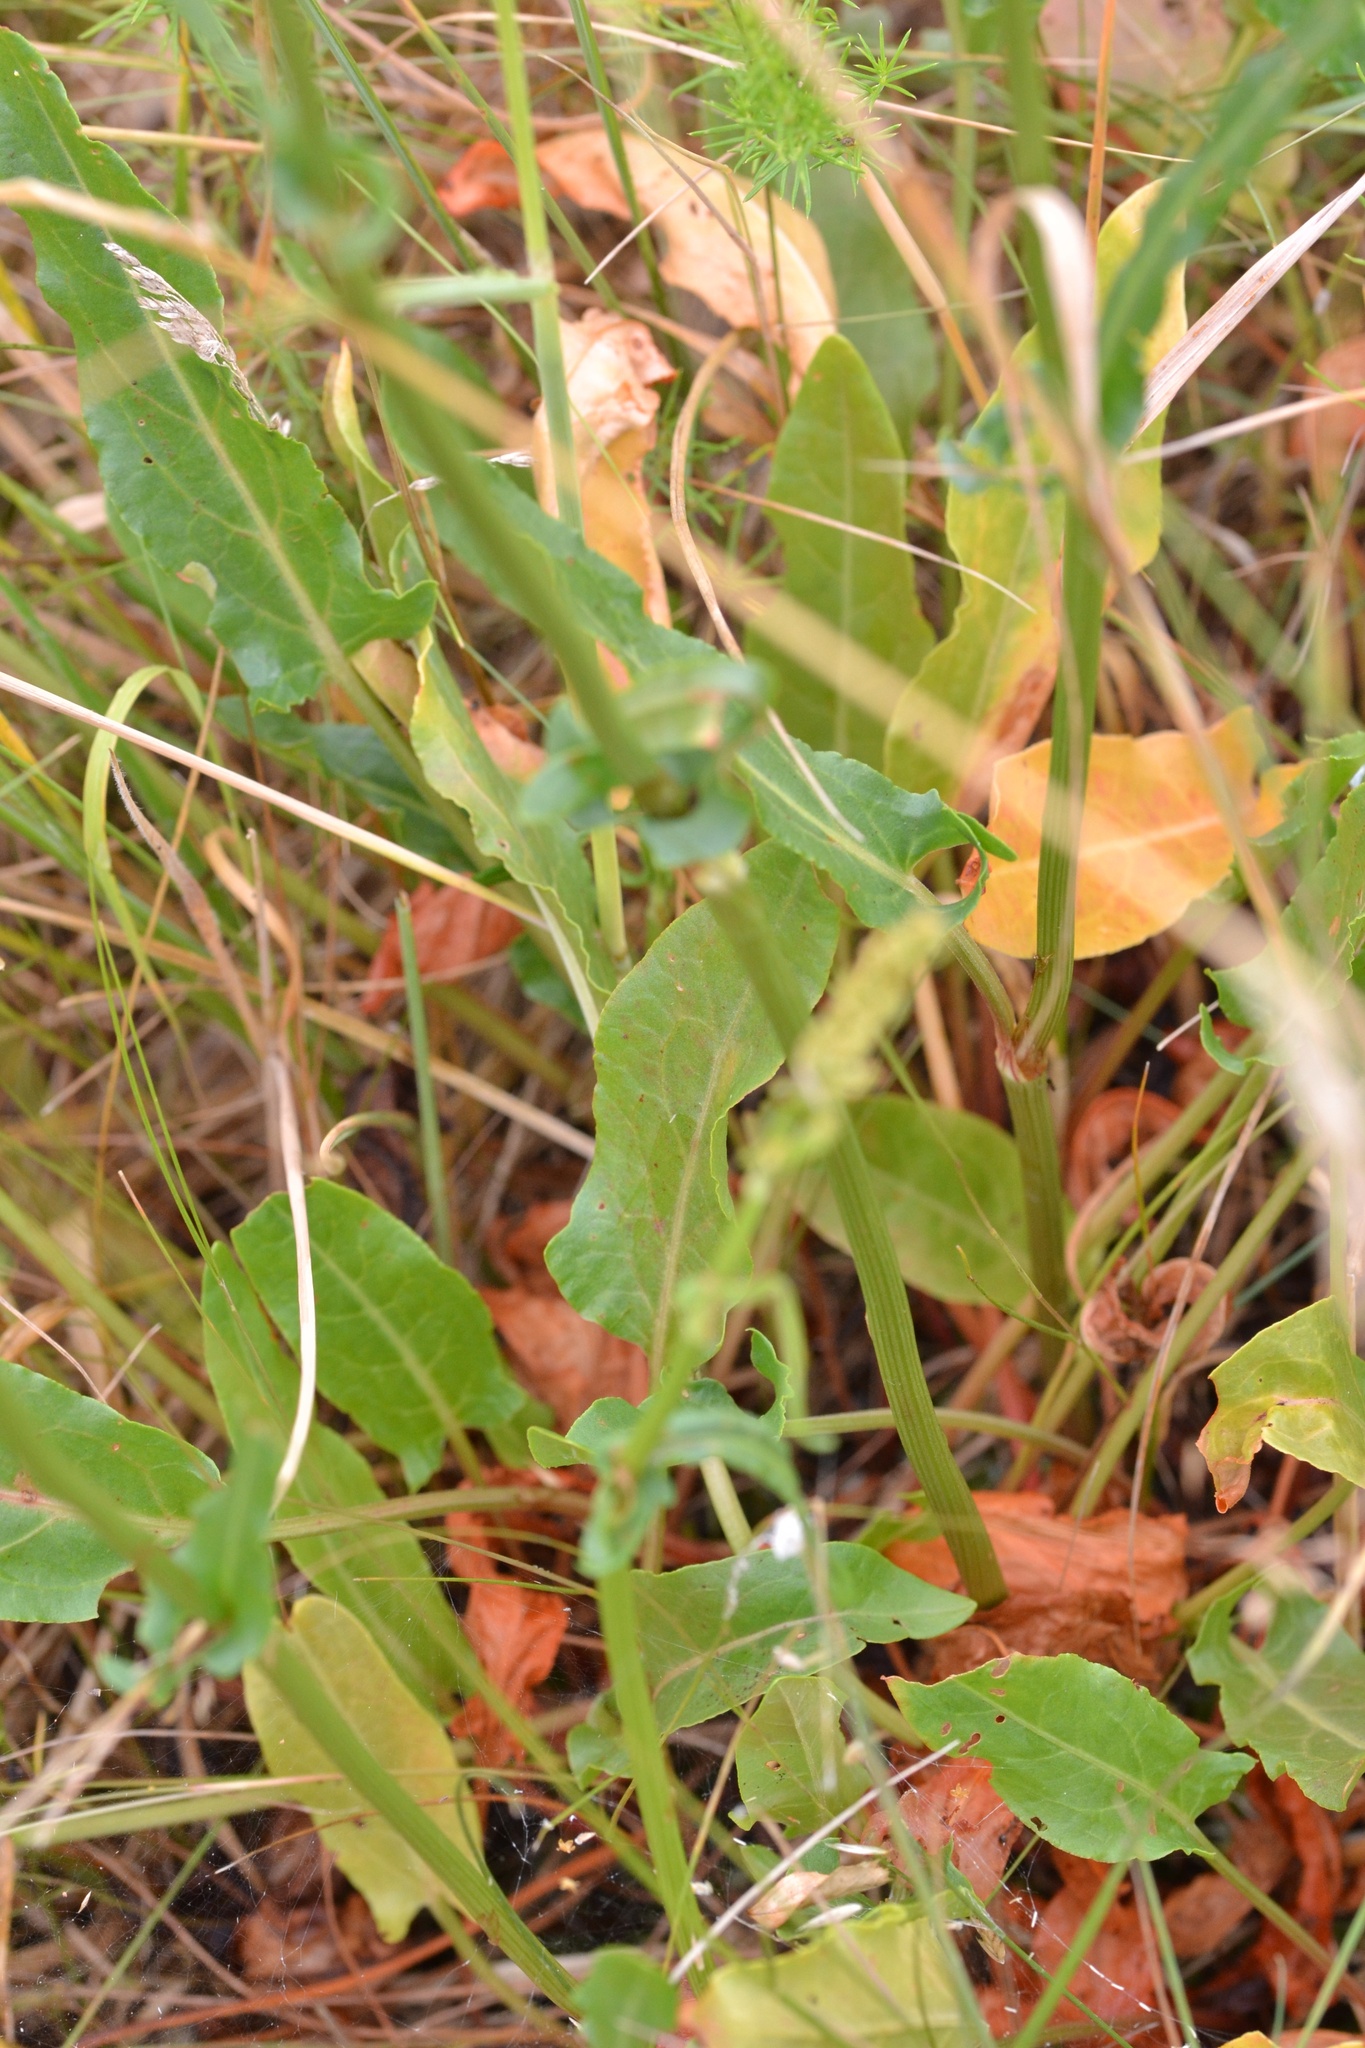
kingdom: Plantae
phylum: Tracheophyta
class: Magnoliopsida
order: Caryophyllales
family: Polygonaceae
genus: Rumex
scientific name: Rumex thyrsiflorus
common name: Garden sorrel
